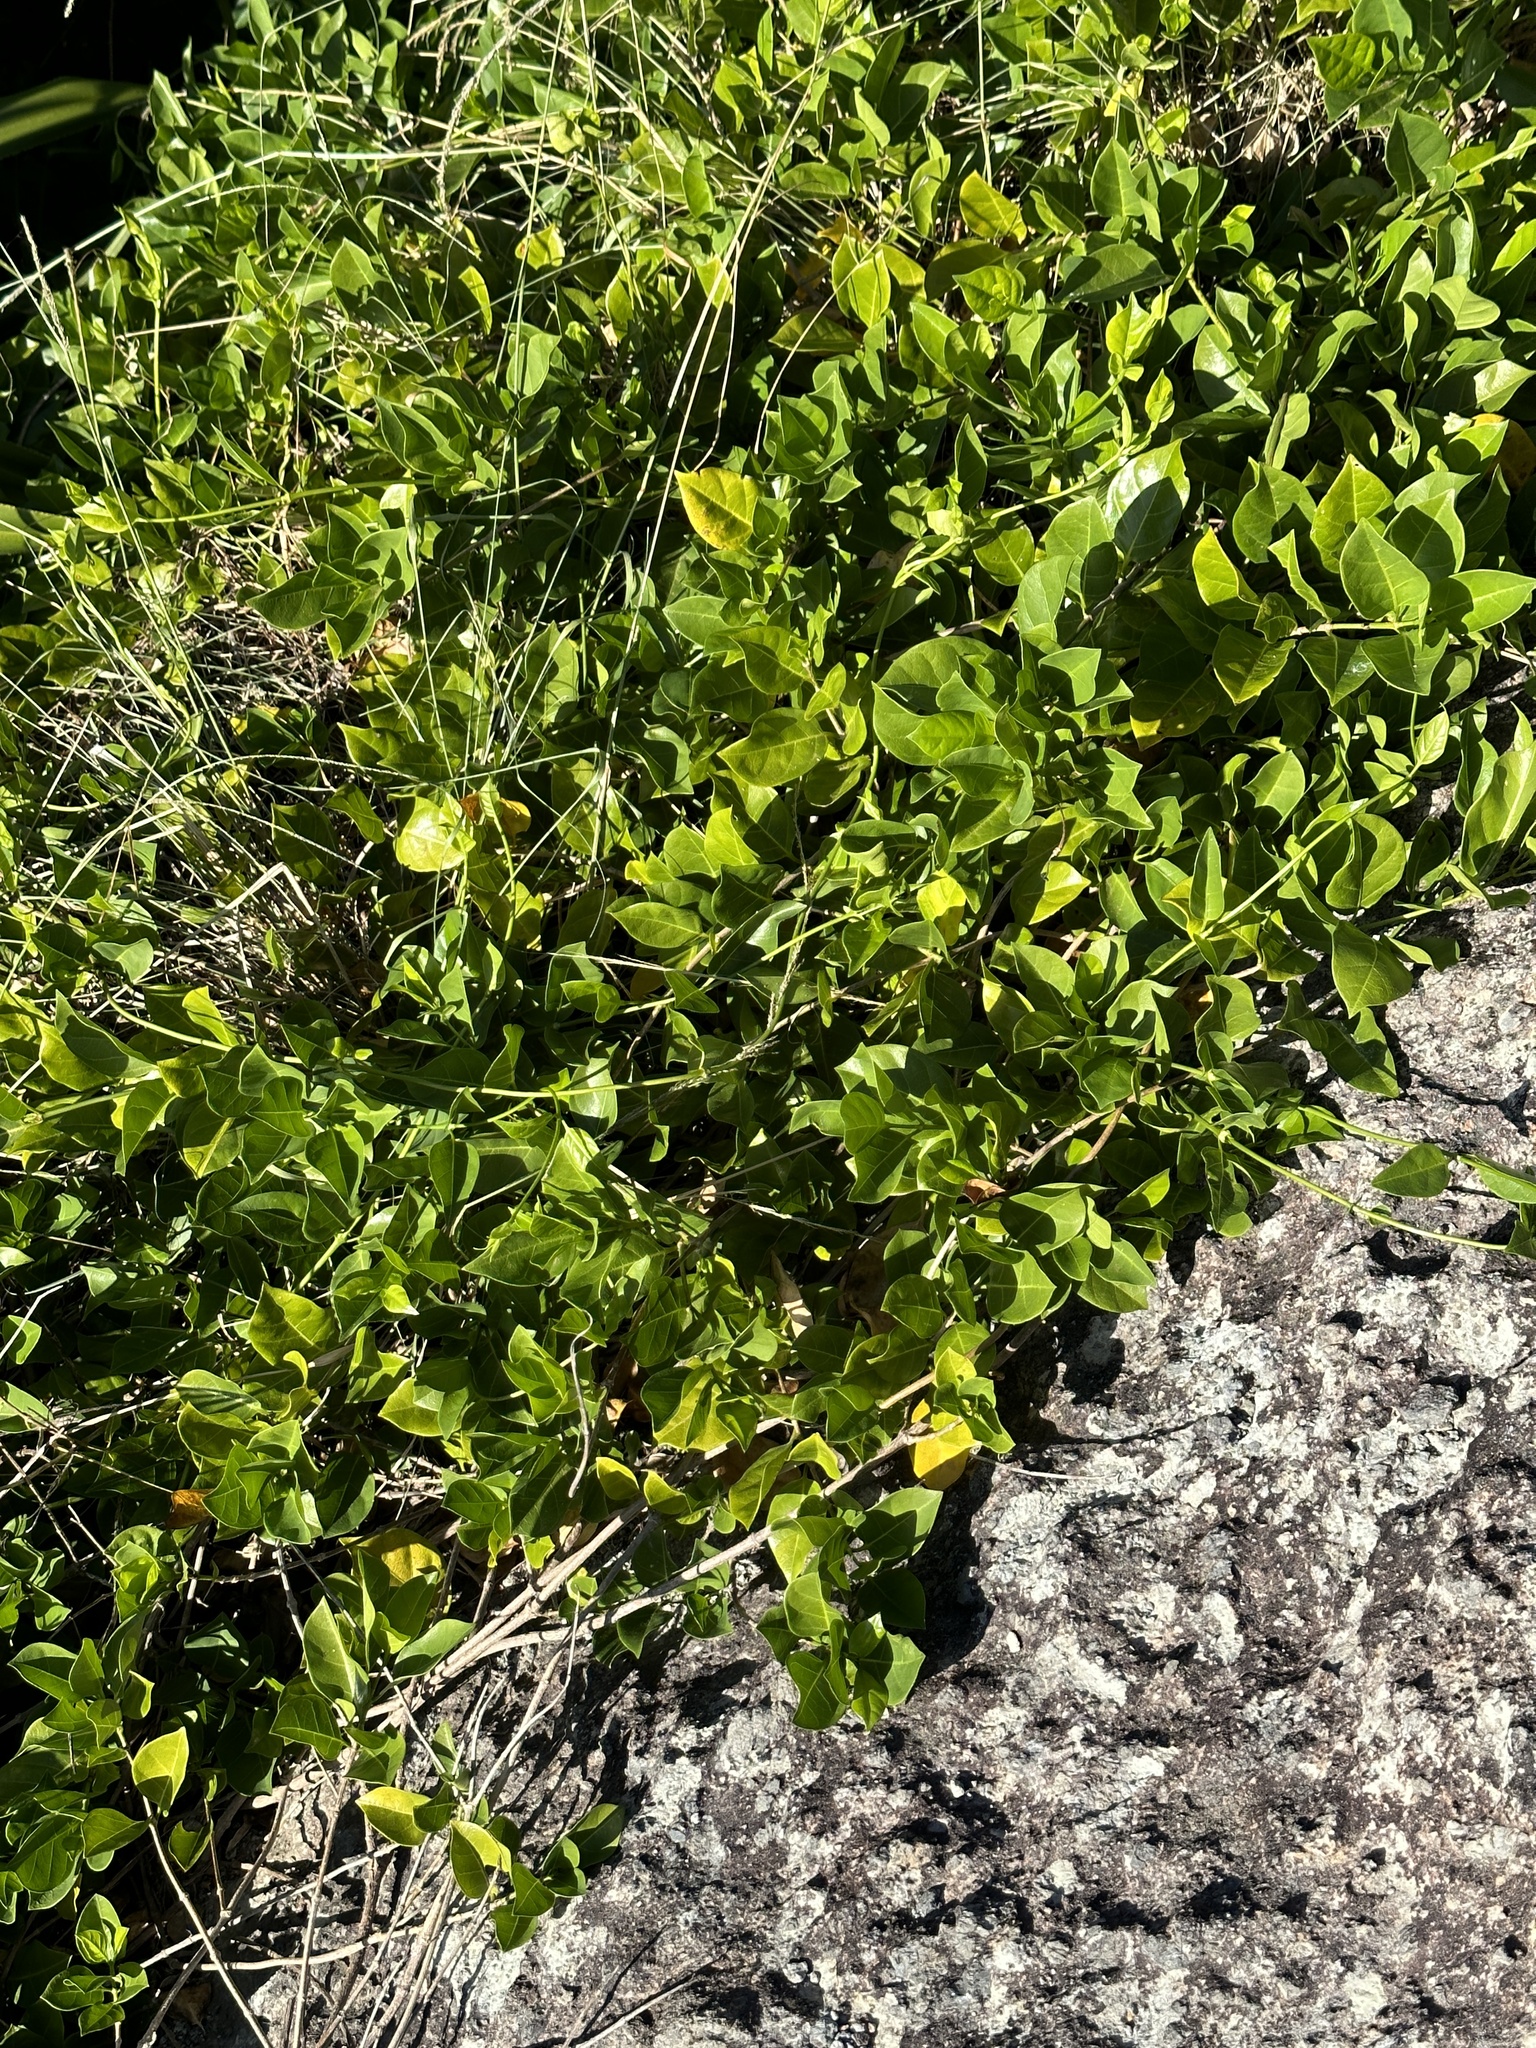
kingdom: Plantae
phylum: Tracheophyta
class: Magnoliopsida
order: Gentianales
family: Rubiaceae
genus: Gynochthodes
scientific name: Gynochthodes boninensis
